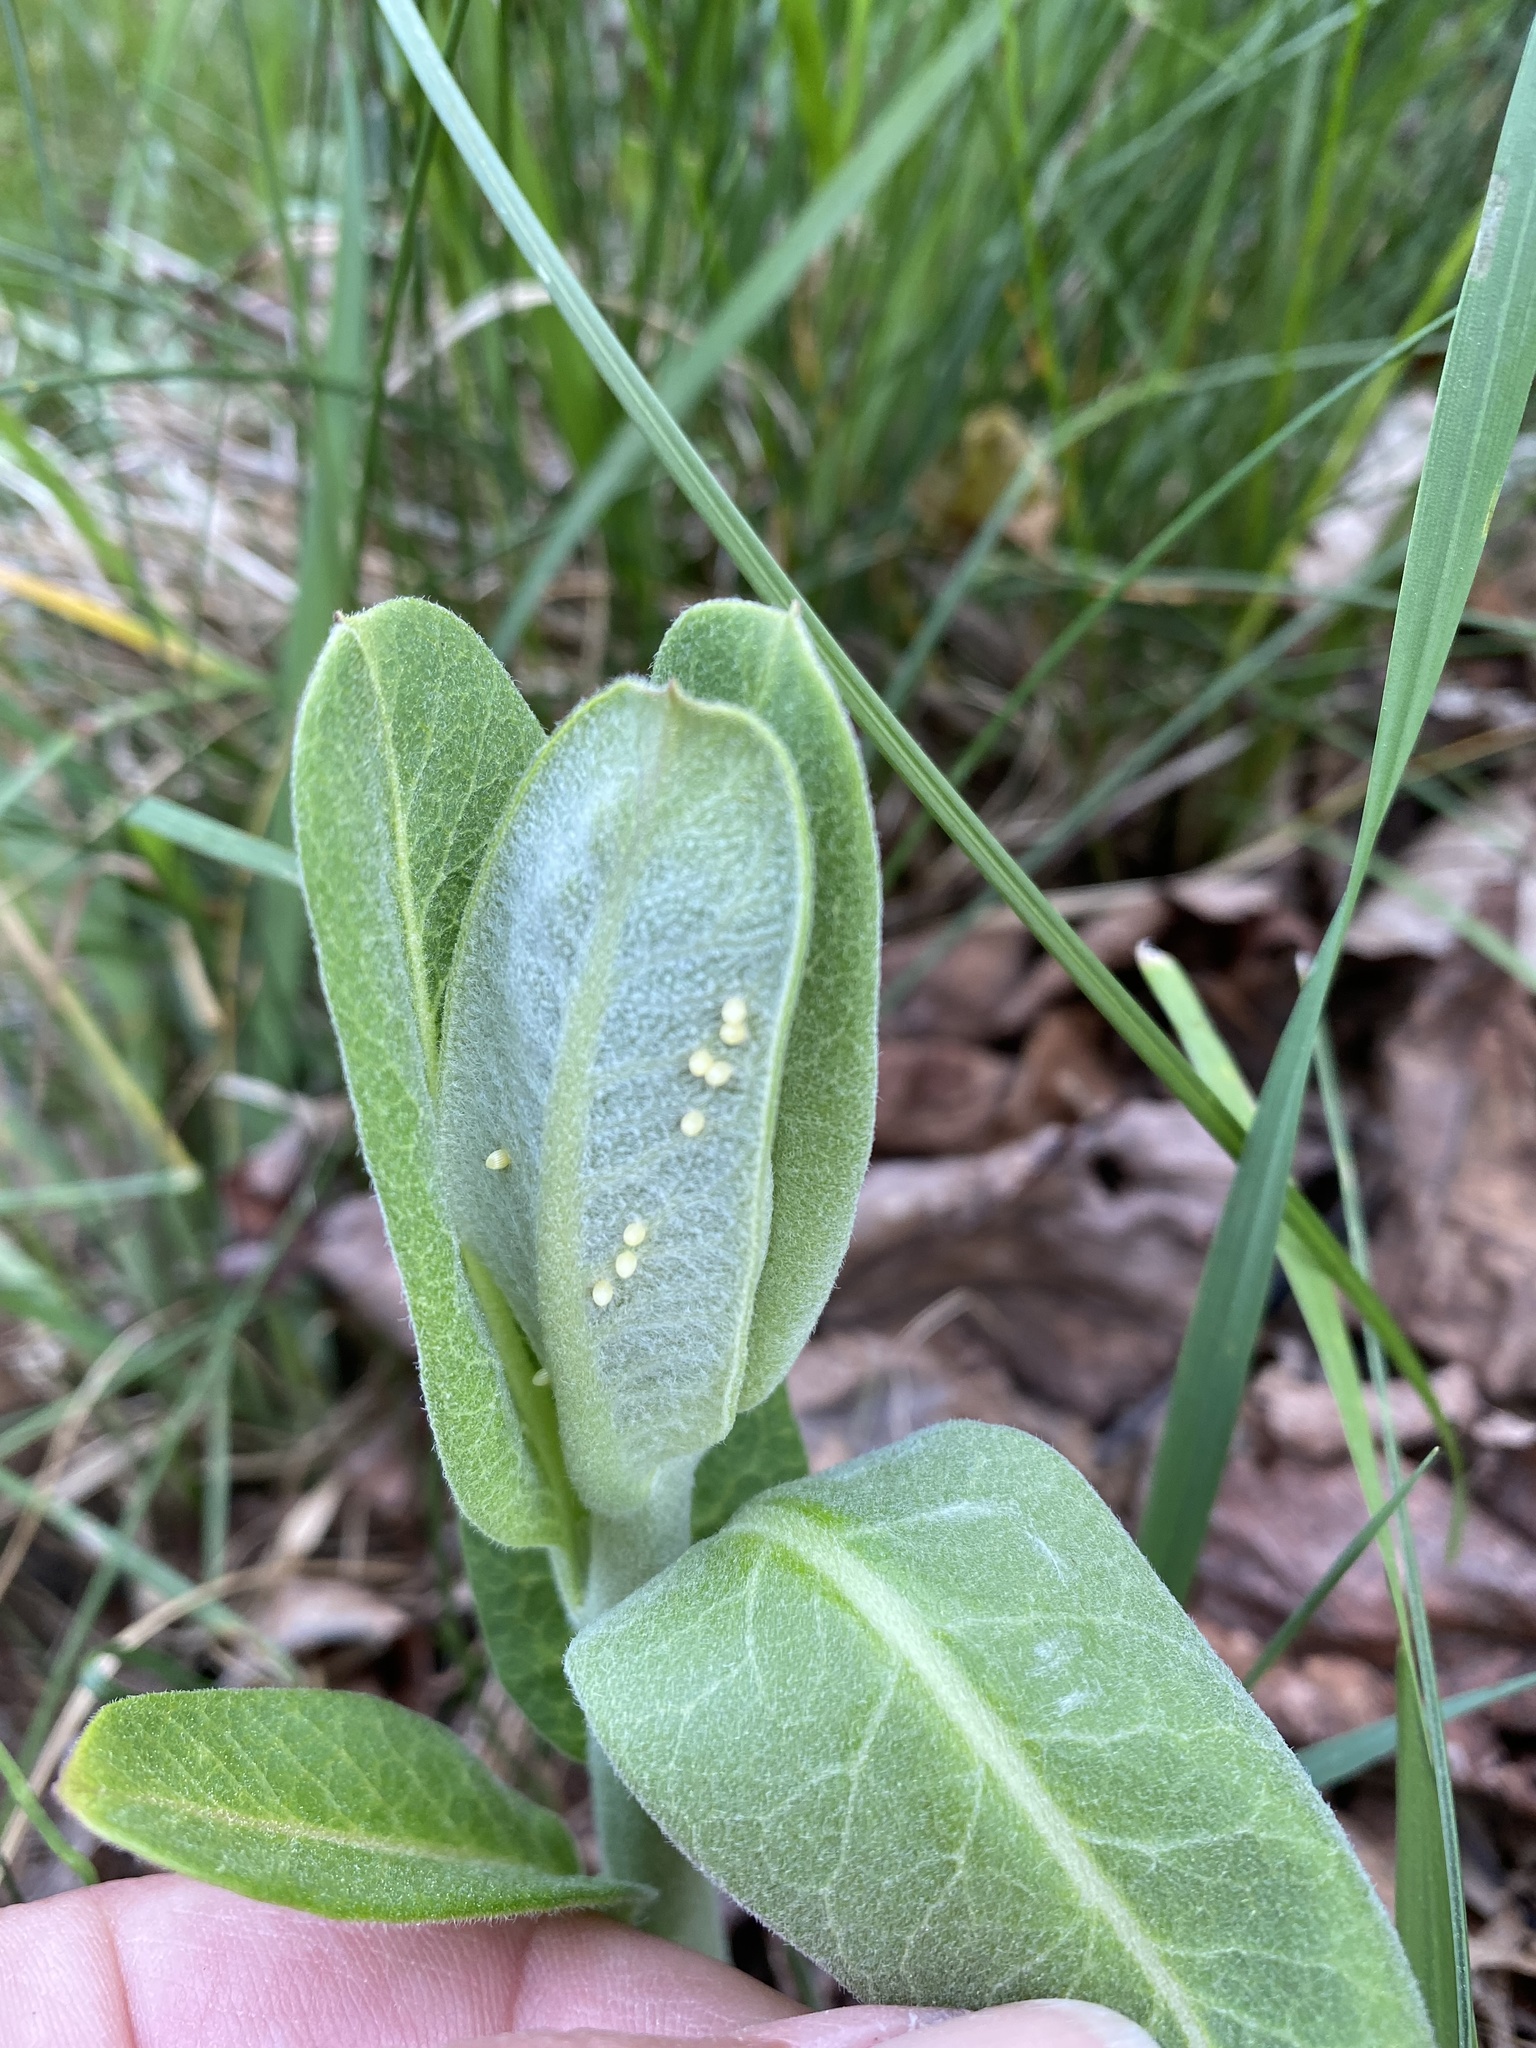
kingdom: Animalia
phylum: Arthropoda
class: Insecta
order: Lepidoptera
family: Nymphalidae
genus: Danaus
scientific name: Danaus plexippus
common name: Monarch
